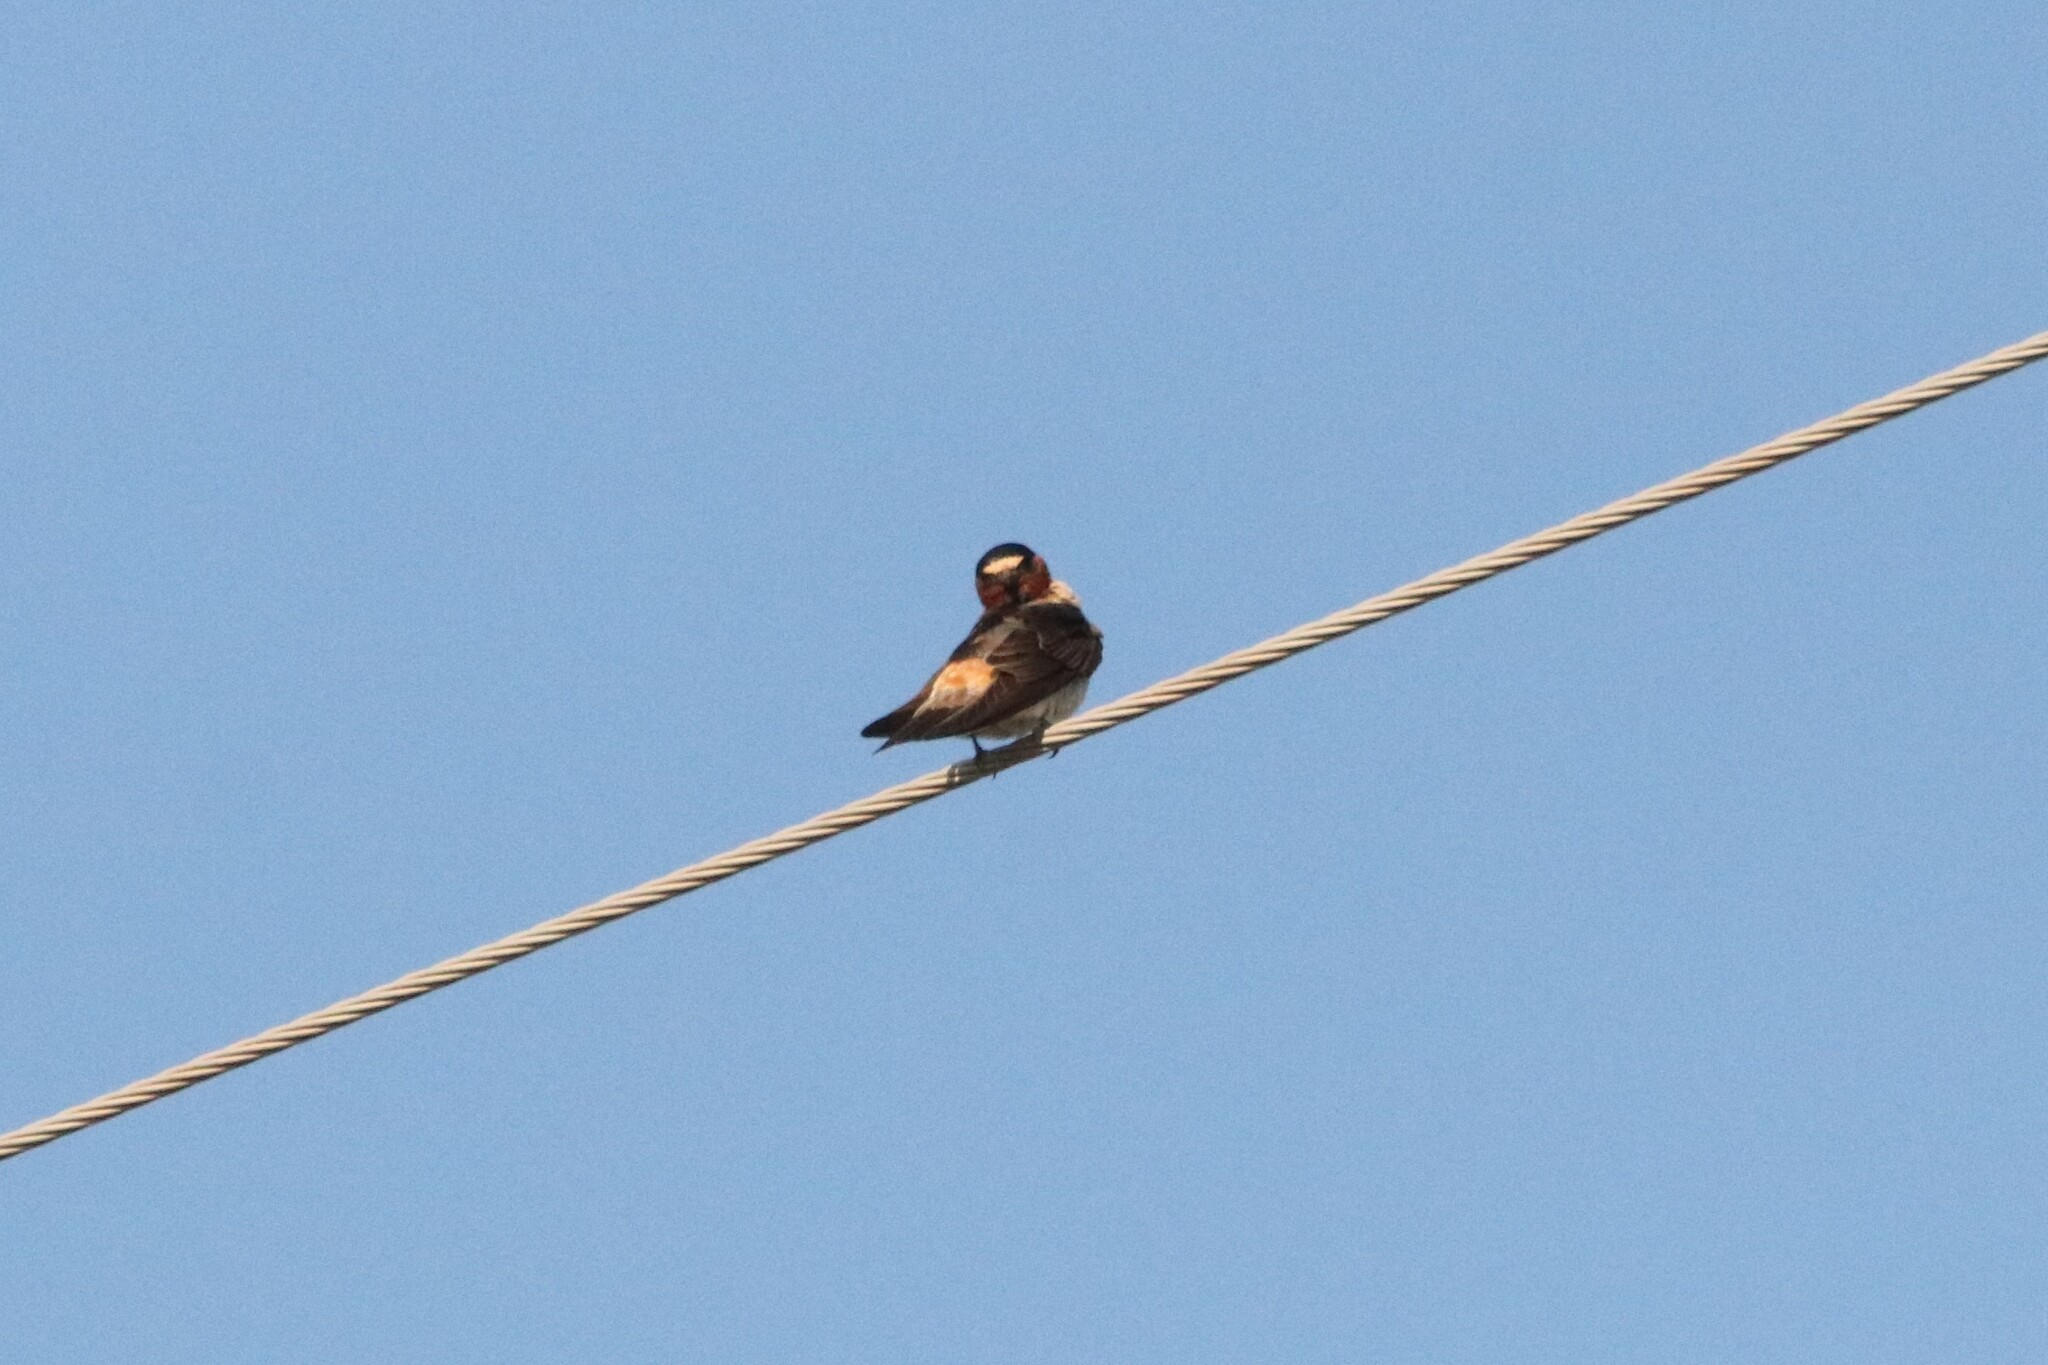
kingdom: Animalia
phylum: Chordata
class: Aves
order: Passeriformes
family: Hirundinidae
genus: Petrochelidon
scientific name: Petrochelidon pyrrhonota
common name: American cliff swallow
